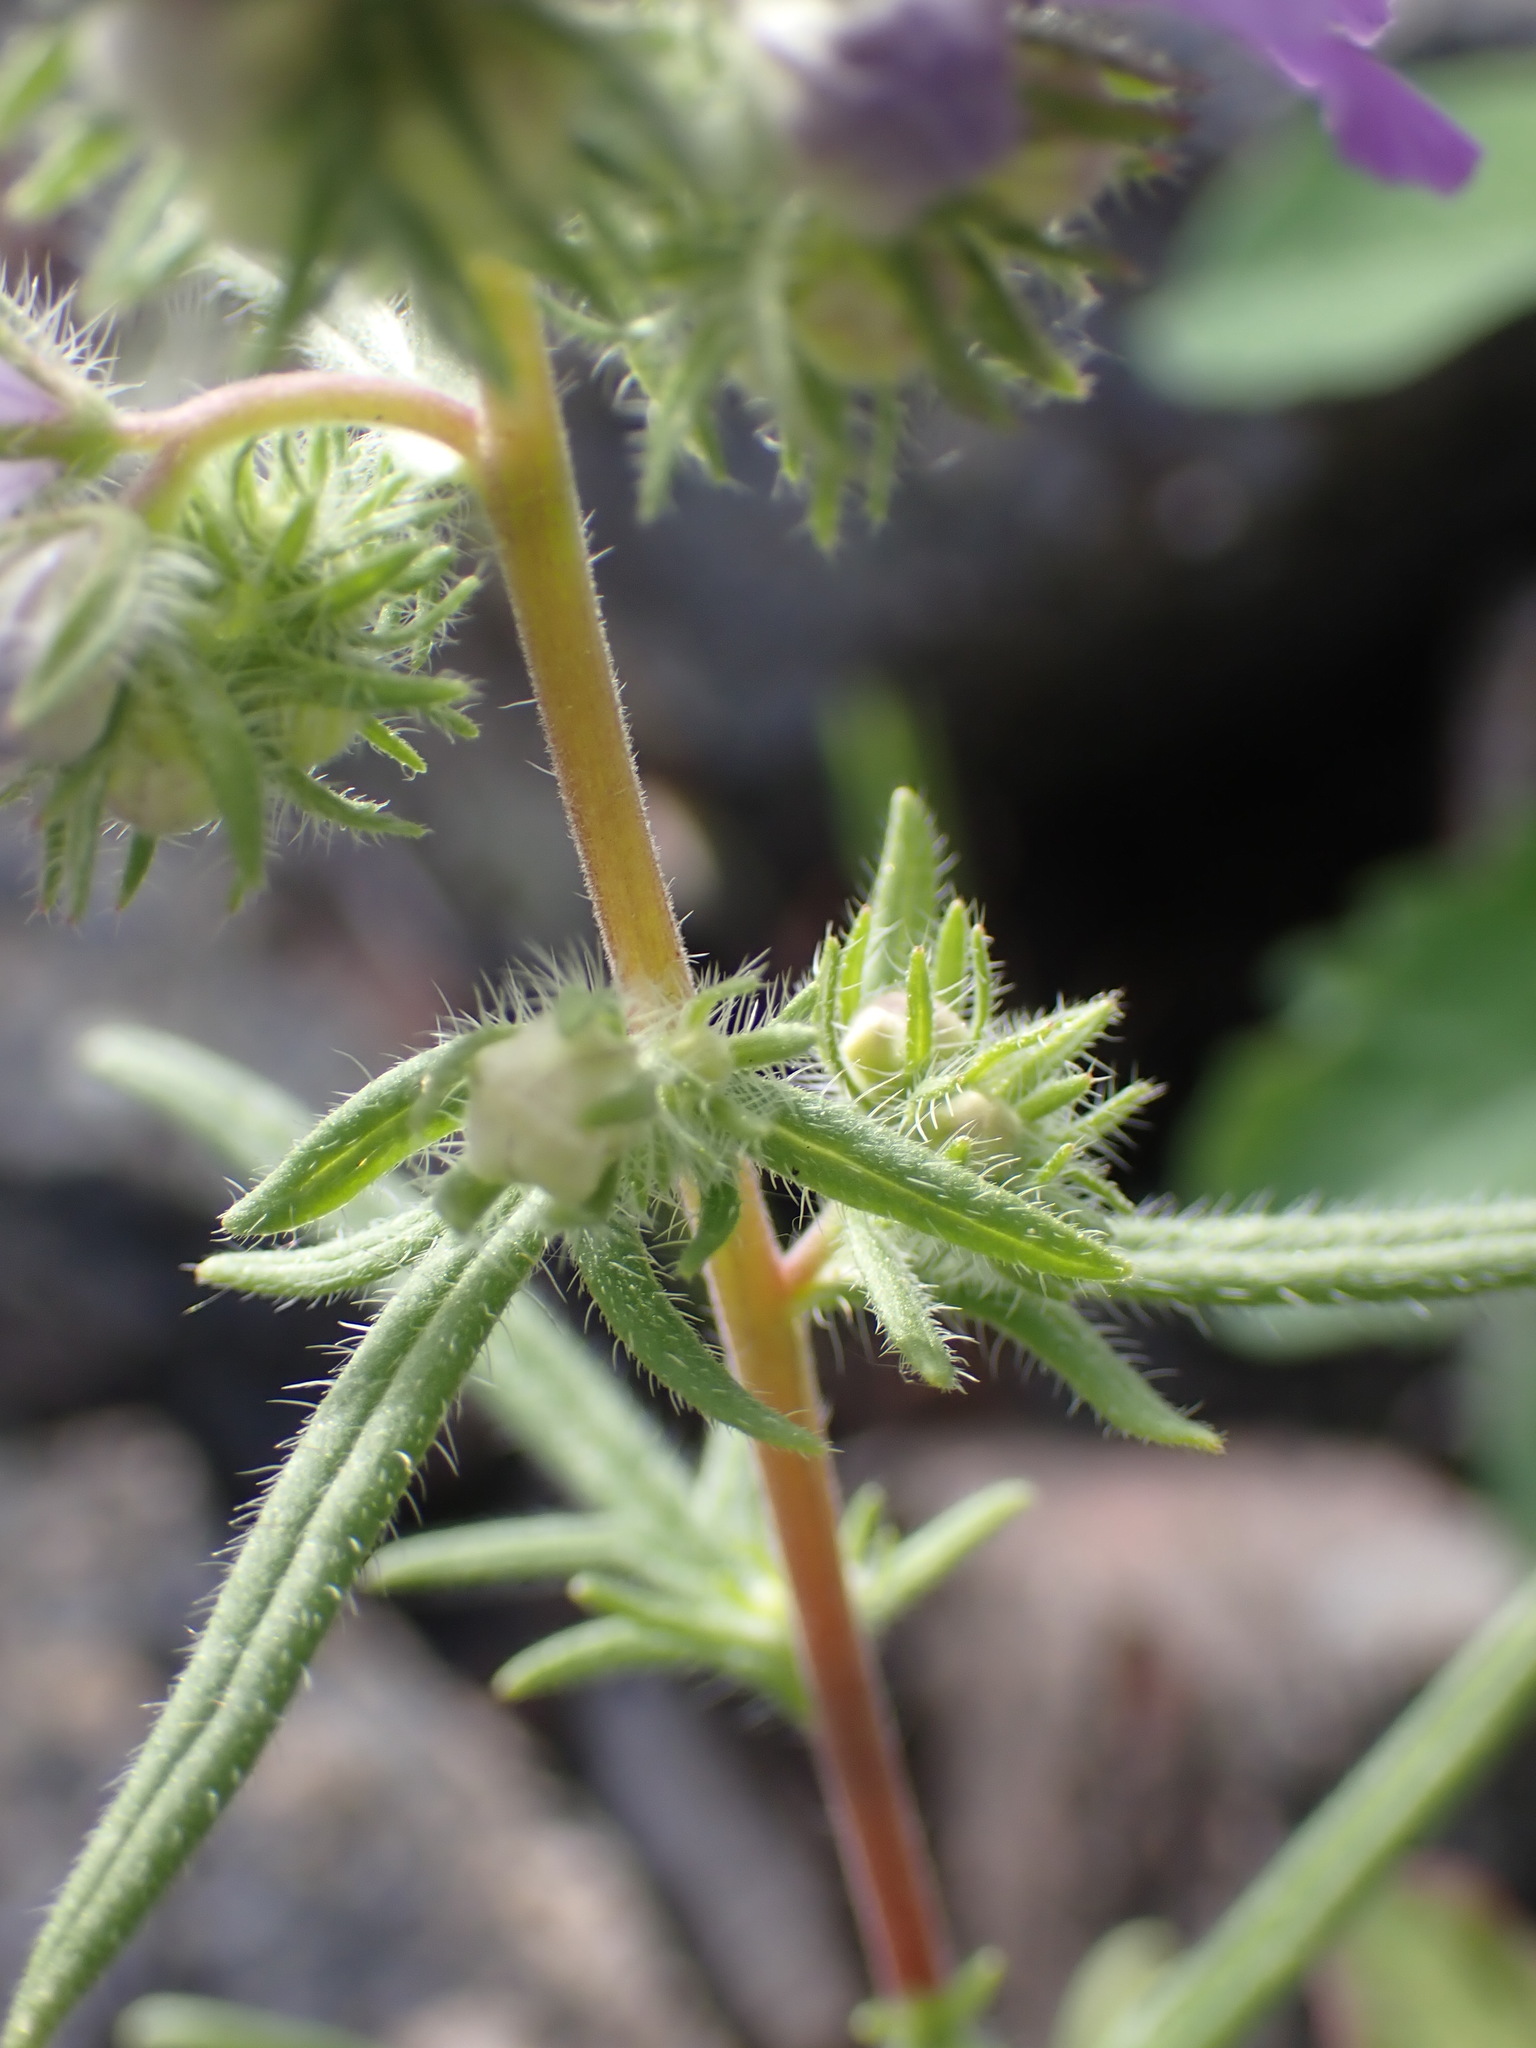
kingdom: Plantae
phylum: Tracheophyta
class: Magnoliopsida
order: Boraginales
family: Hydrophyllaceae
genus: Phacelia
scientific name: Phacelia linearis
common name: Linear-leaved phacelia
